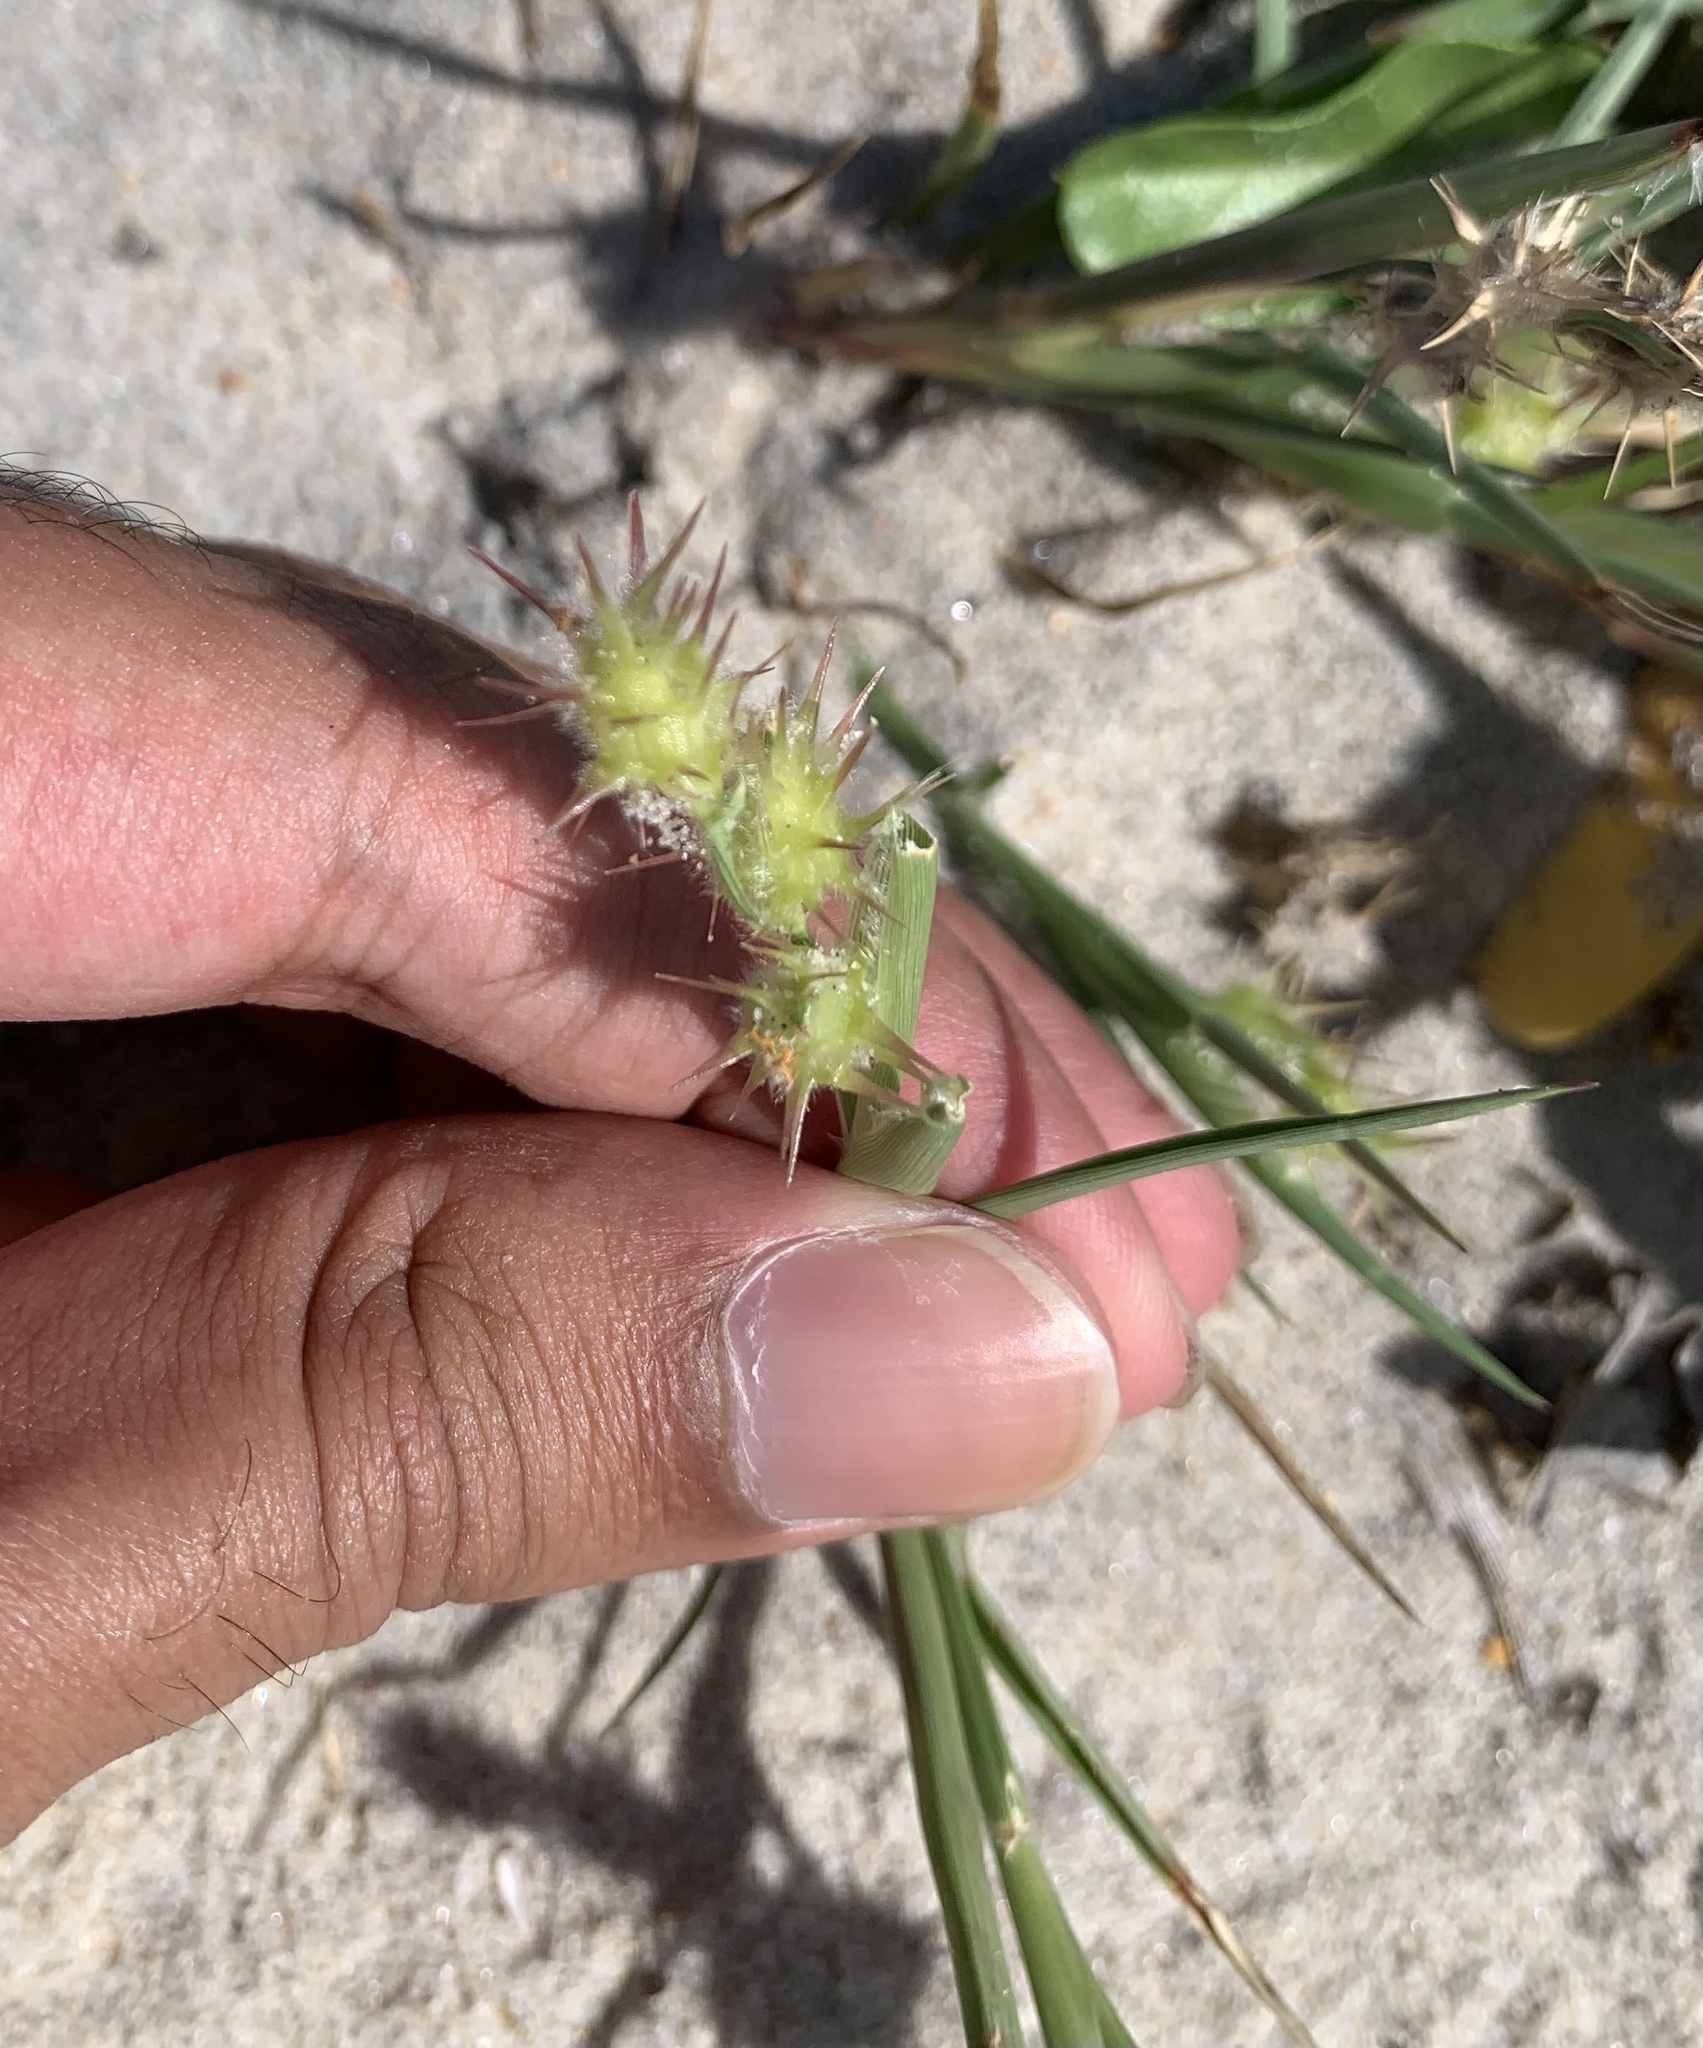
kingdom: Plantae
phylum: Tracheophyta
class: Liliopsida
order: Poales
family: Poaceae
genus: Cenchrus
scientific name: Cenchrus tribuloides
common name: Dune sandbur
